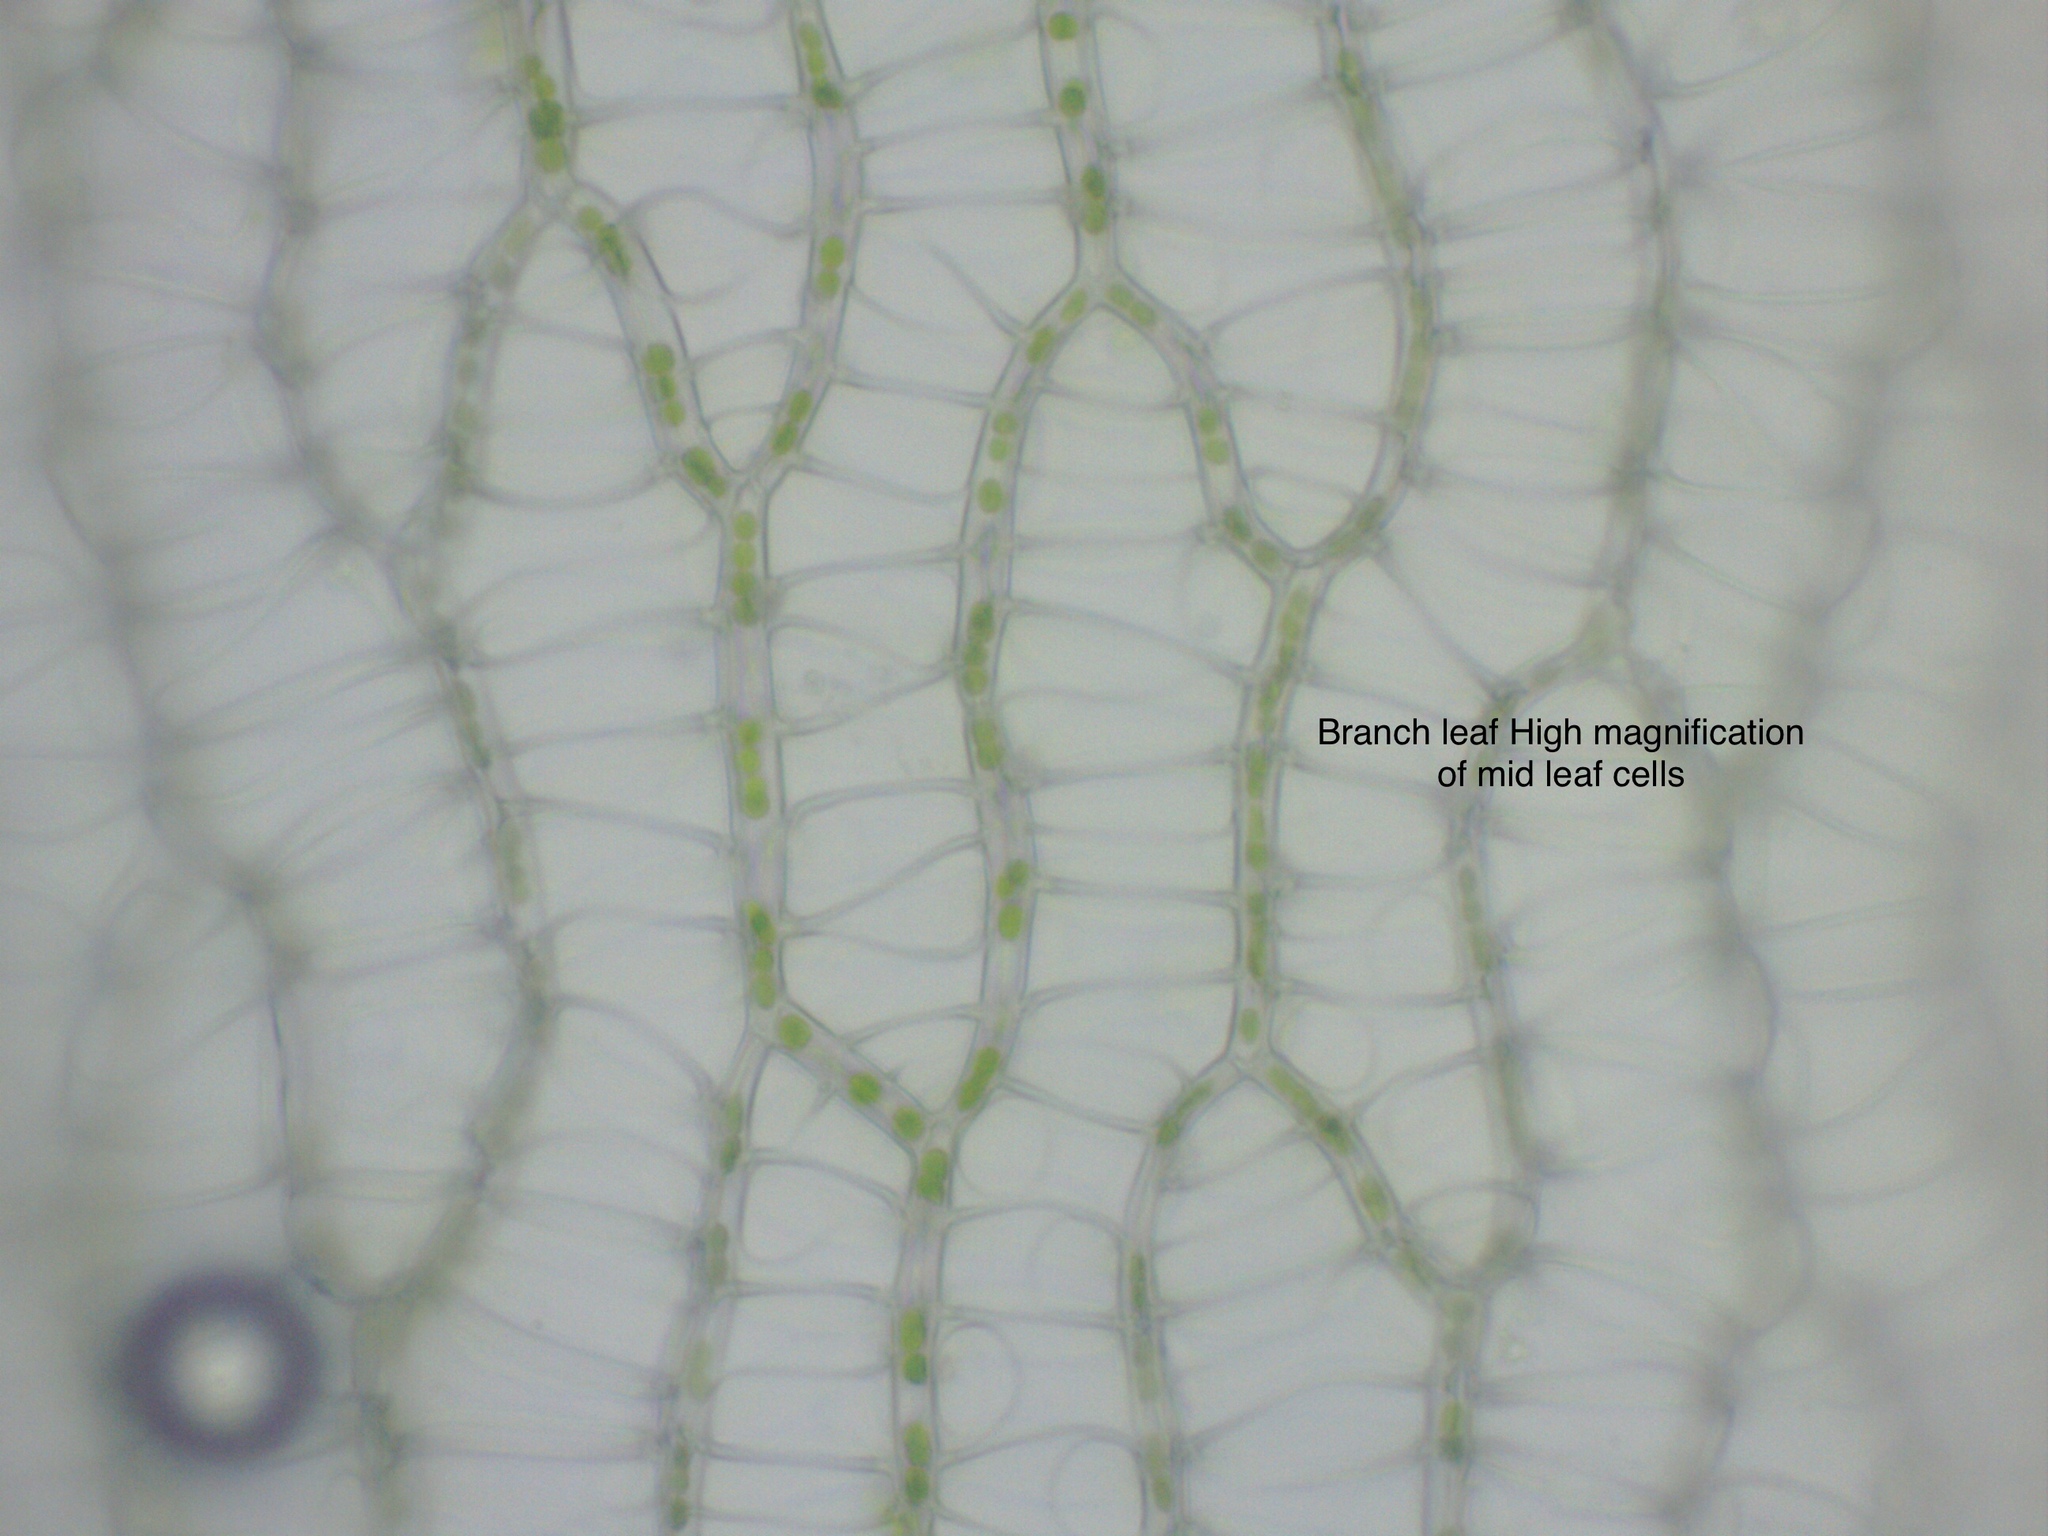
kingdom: Plantae
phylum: Bryophyta
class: Sphagnopsida
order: Sphagnales
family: Sphagnaceae
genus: Sphagnum
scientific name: Sphagnum subnitens
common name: Lustrous bog-moss
